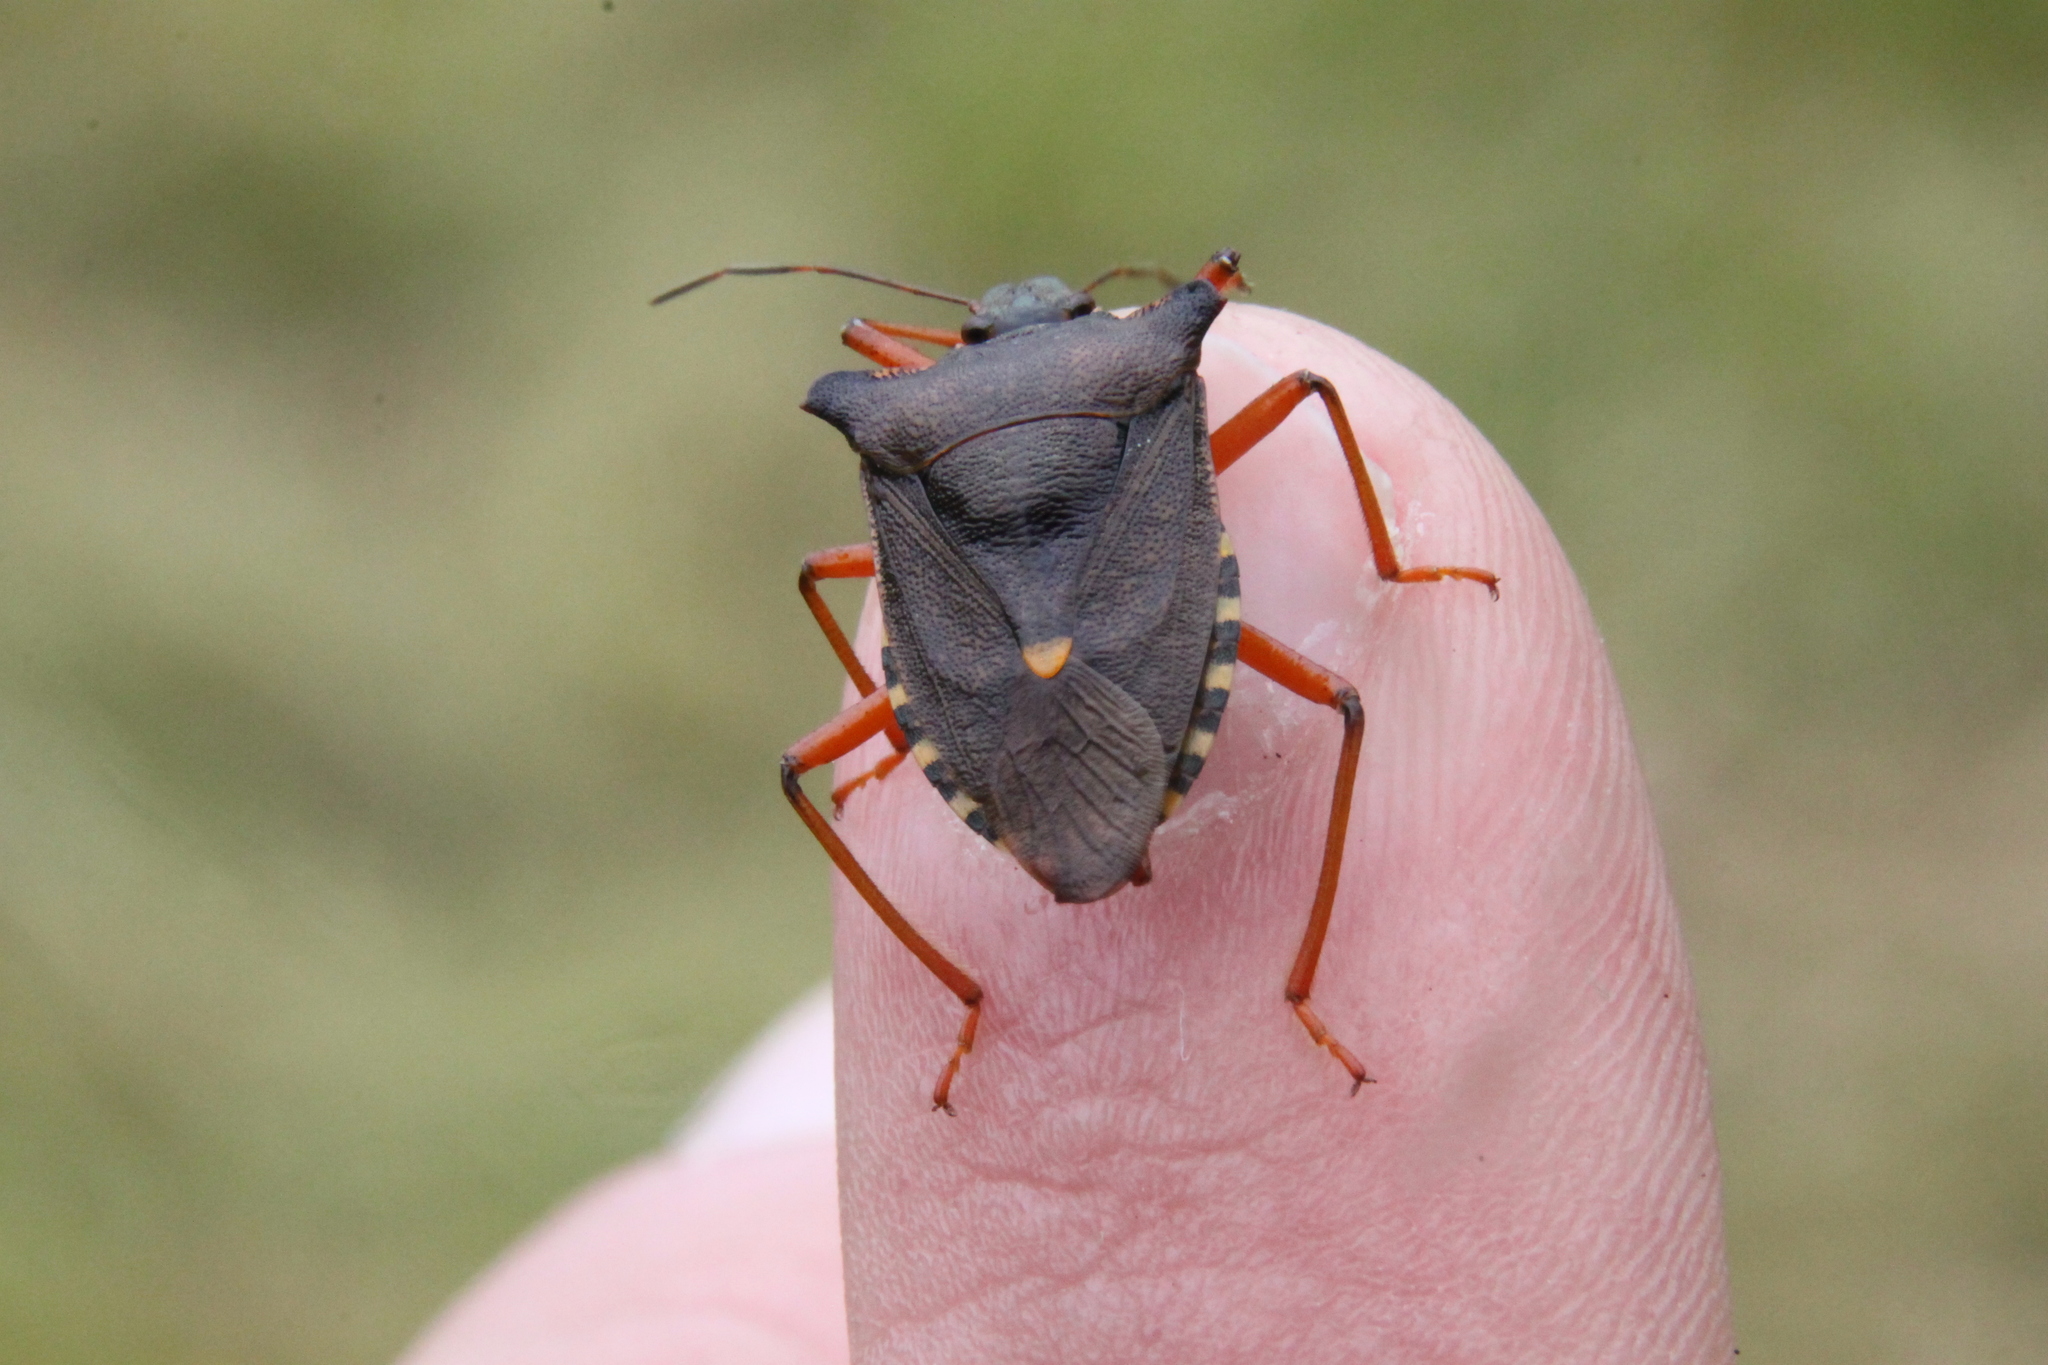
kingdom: Animalia
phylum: Arthropoda
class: Insecta
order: Hemiptera
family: Pentatomidae
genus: Pentatoma
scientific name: Pentatoma rufipes
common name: Forest bug
